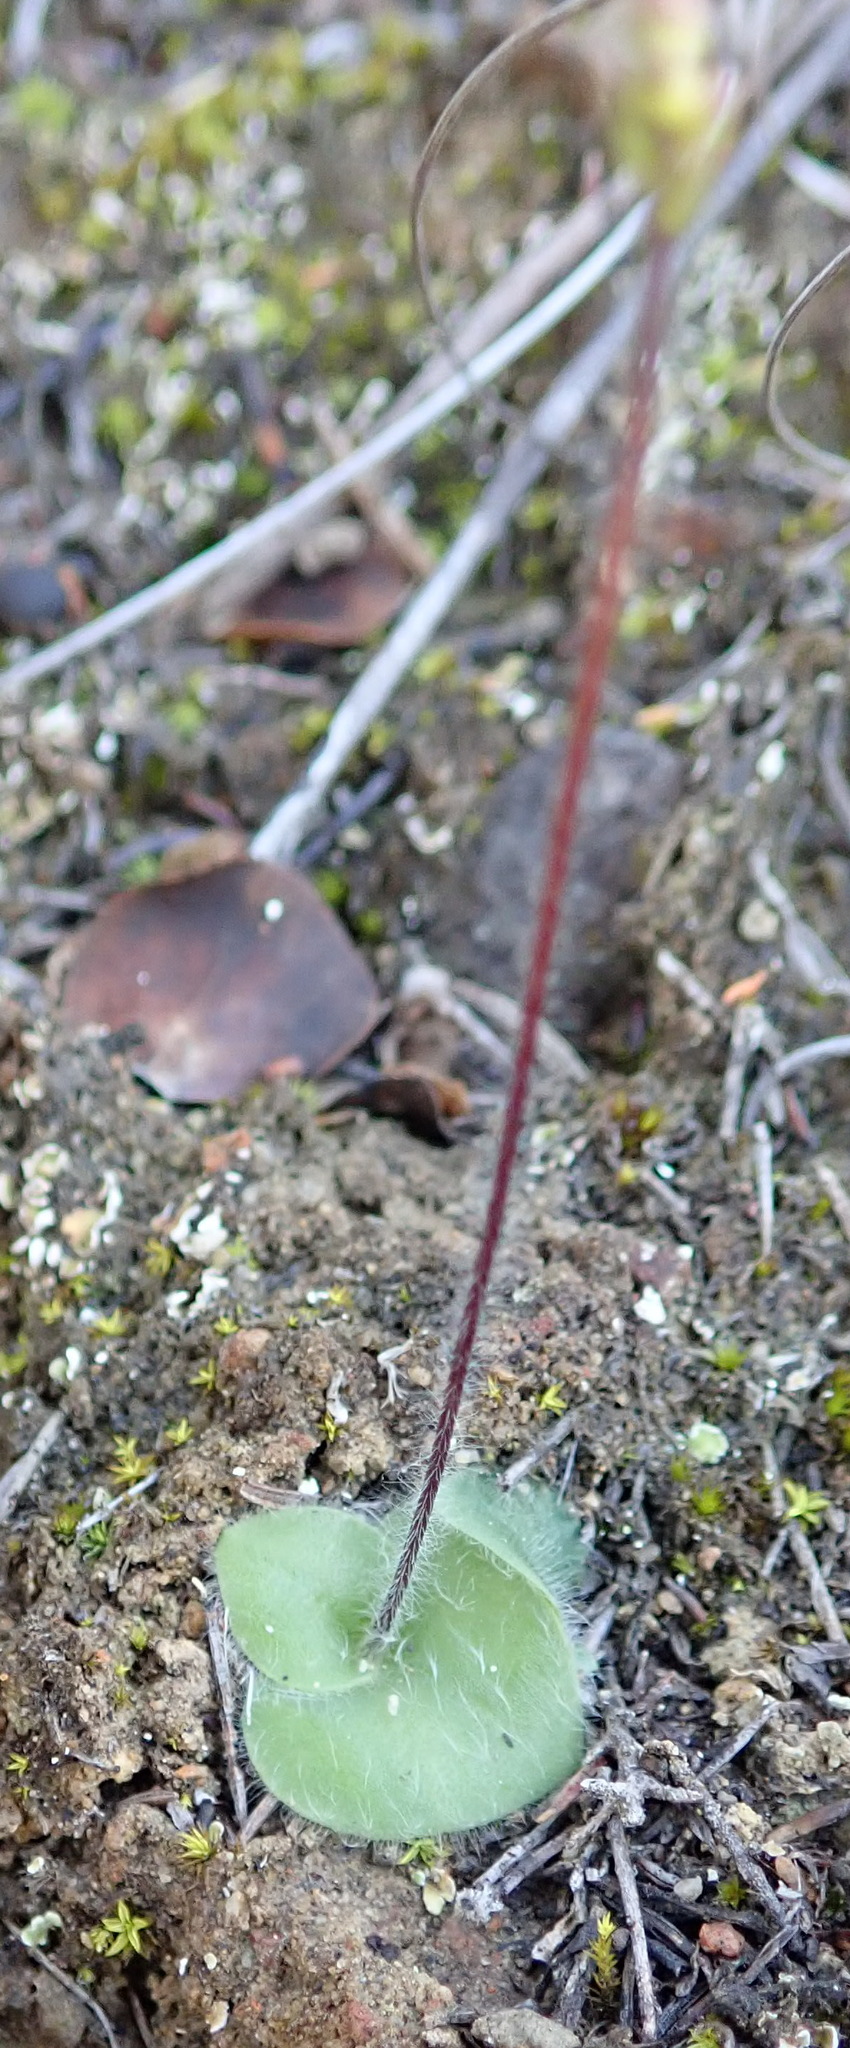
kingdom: Plantae
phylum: Tracheophyta
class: Liliopsida
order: Asparagales
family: Orchidaceae
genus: Holothrix
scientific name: Holothrix villosa
